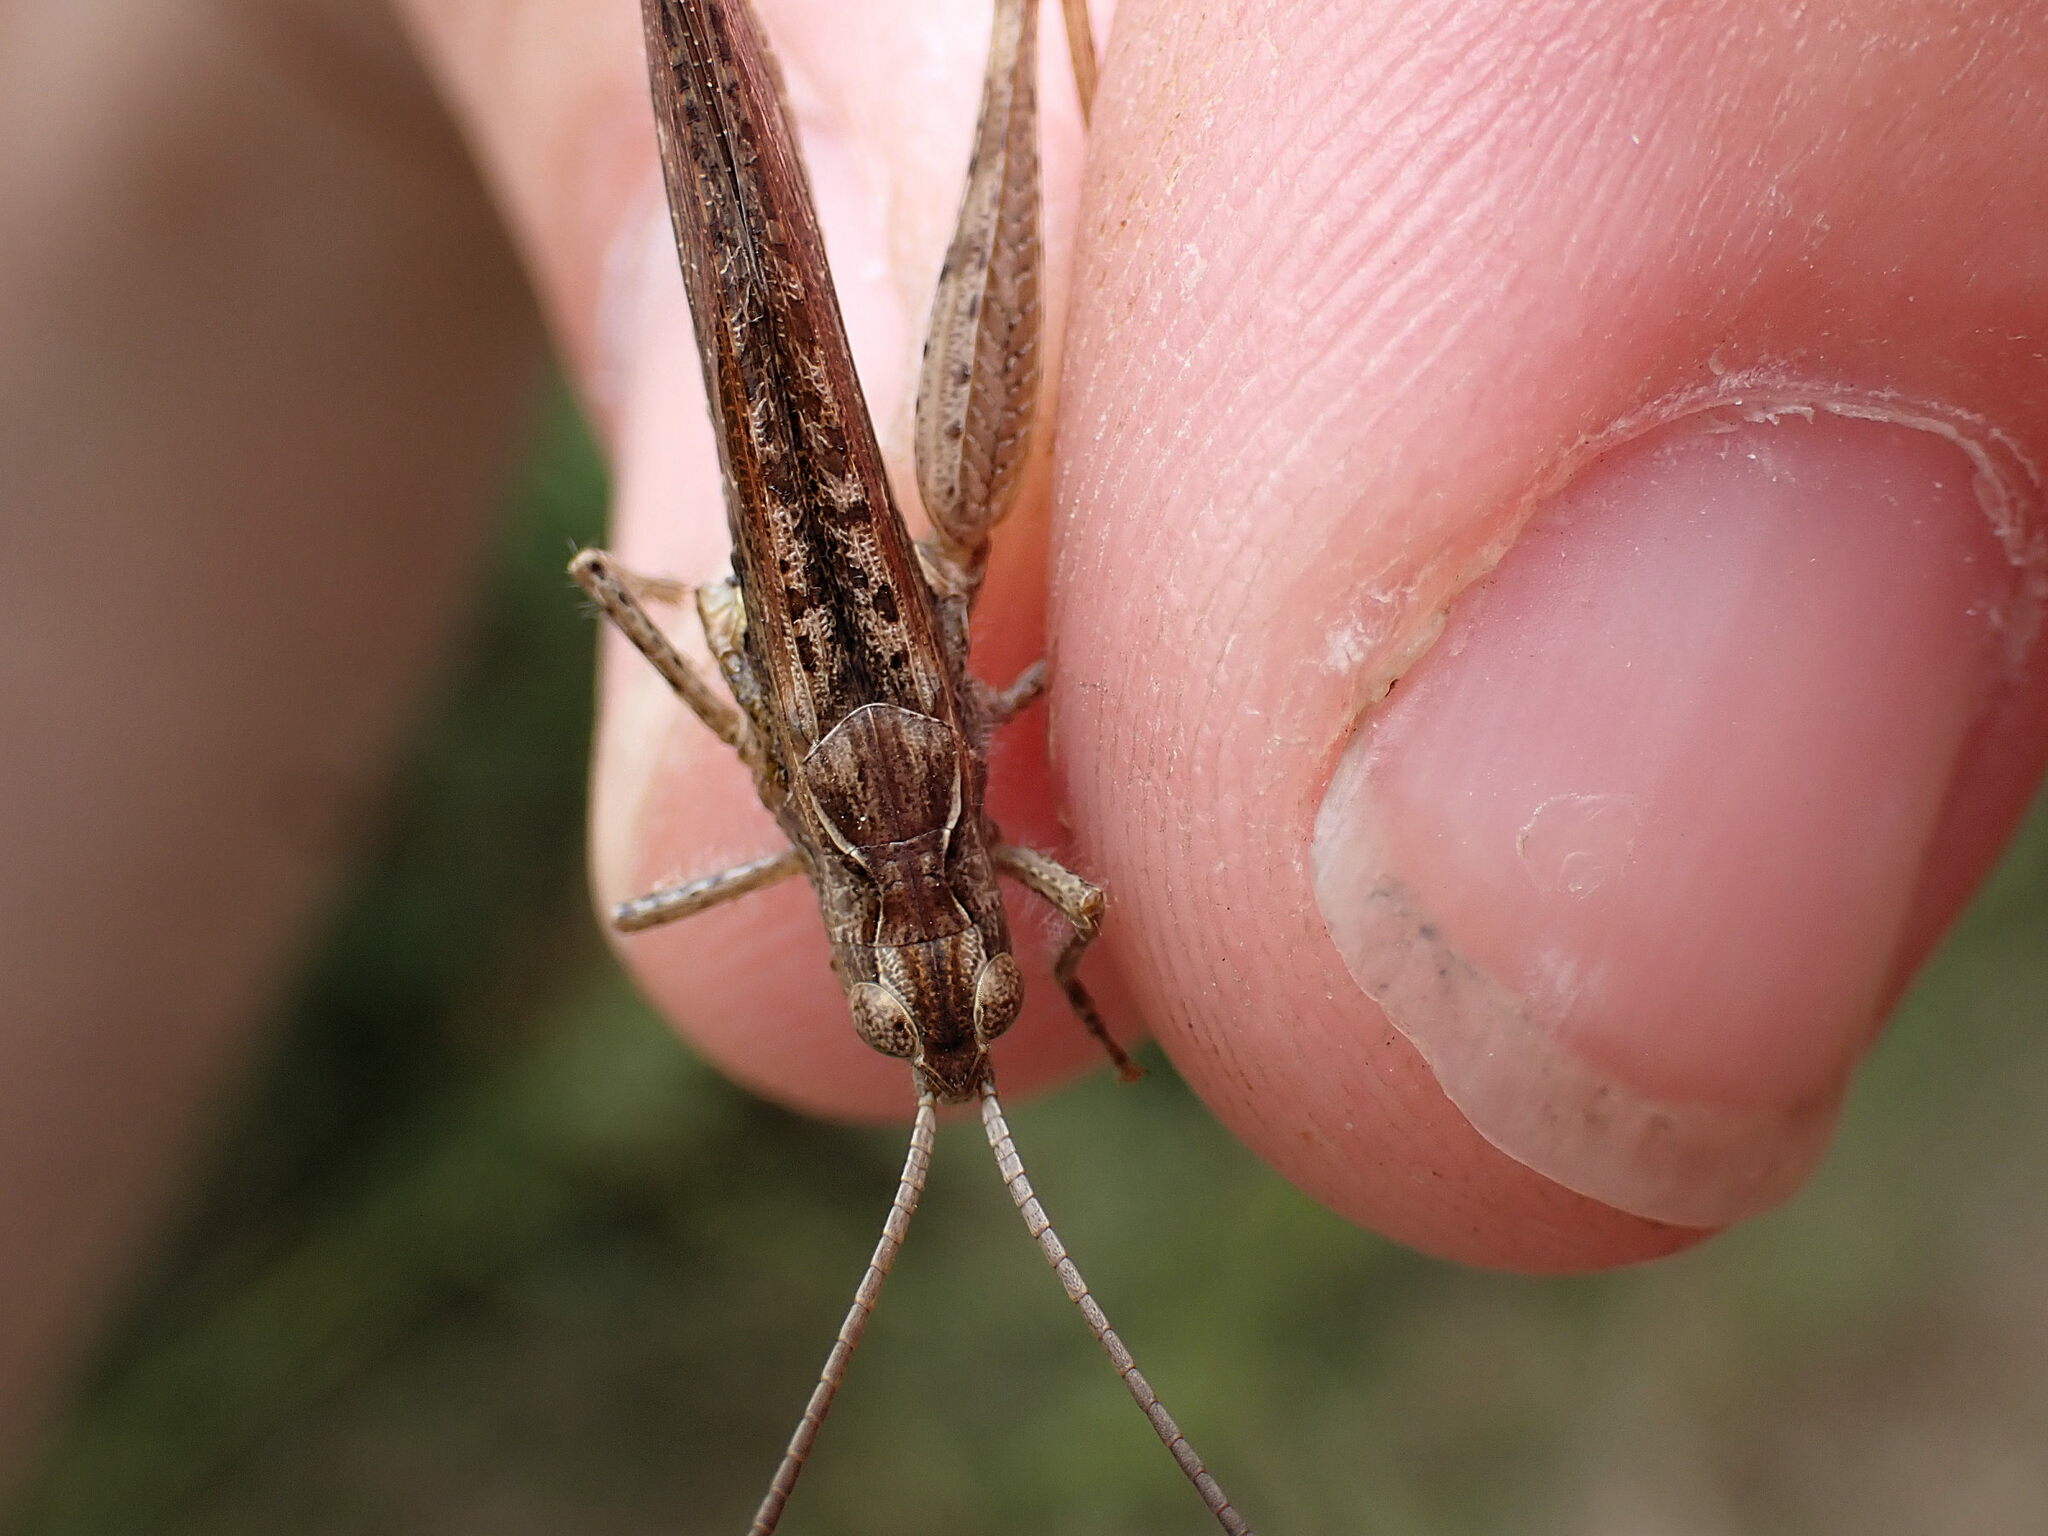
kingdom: Animalia
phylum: Arthropoda
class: Insecta
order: Orthoptera
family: Acrididae
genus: Chorthippus
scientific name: Chorthippus brunneus
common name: Field grasshopper
